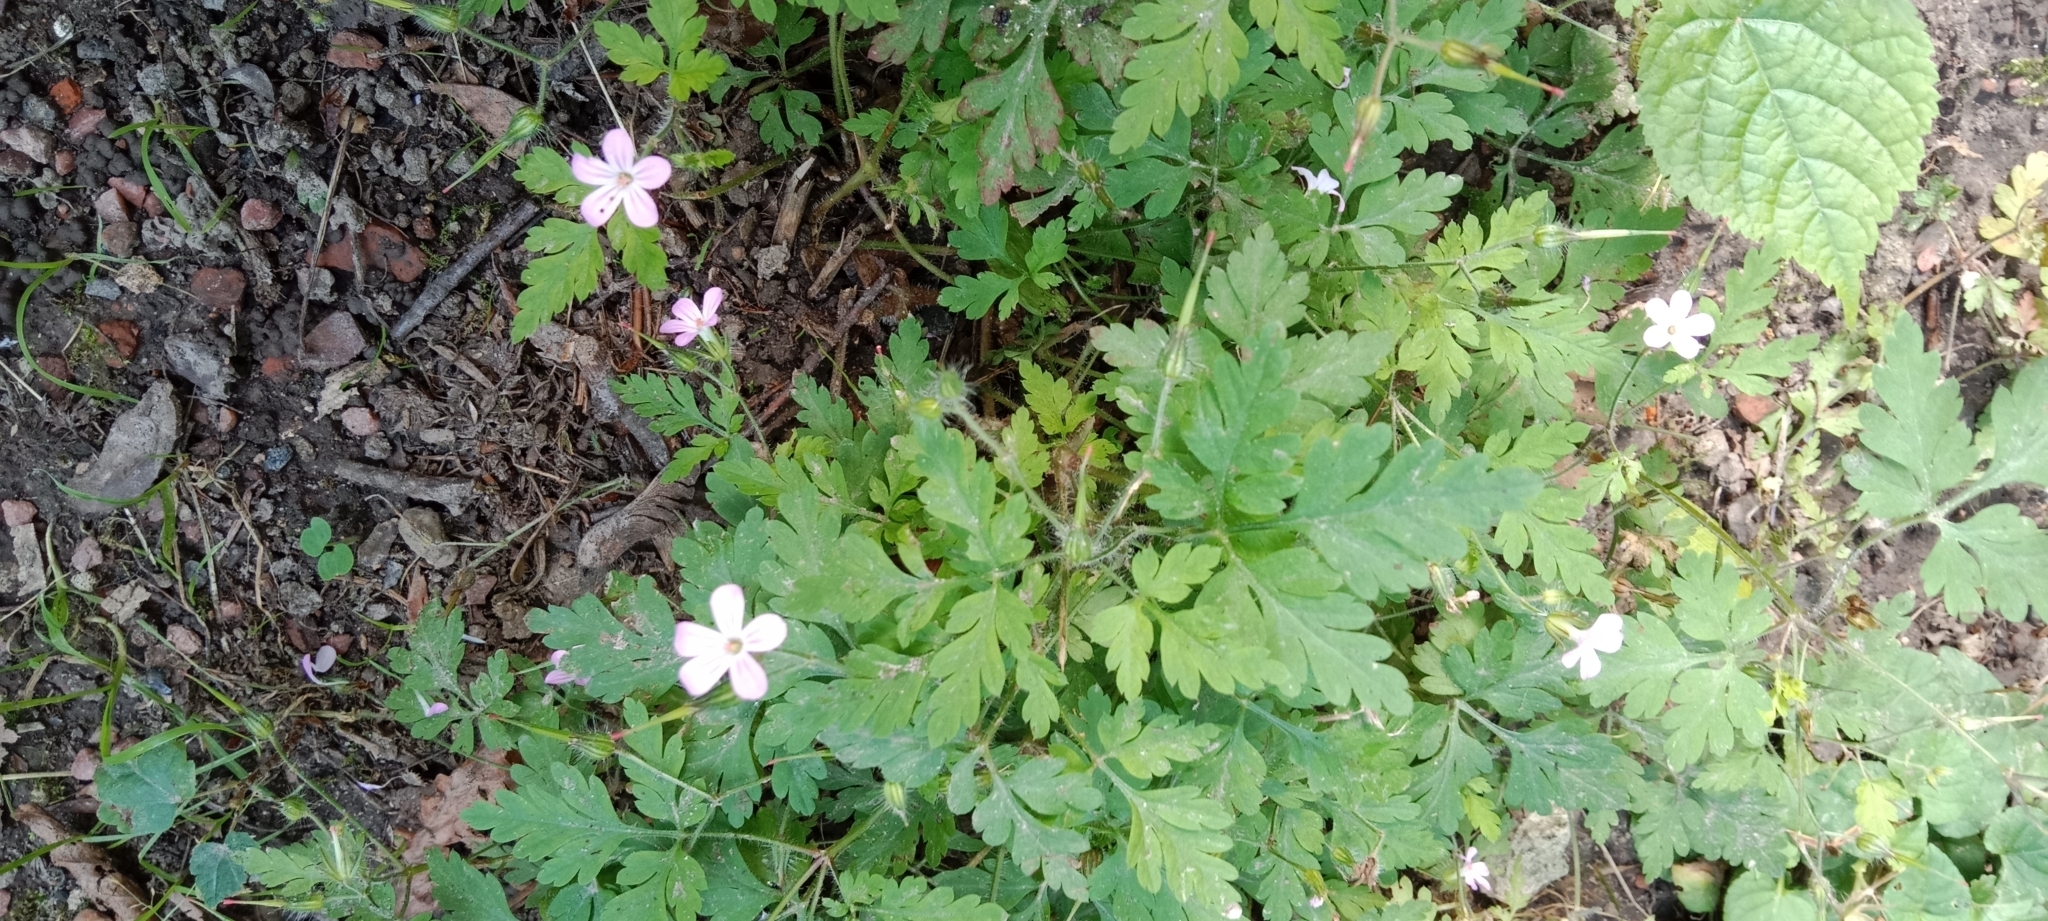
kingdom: Plantae
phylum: Tracheophyta
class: Magnoliopsida
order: Geraniales
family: Geraniaceae
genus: Geranium
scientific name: Geranium robertianum
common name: Herb-robert
